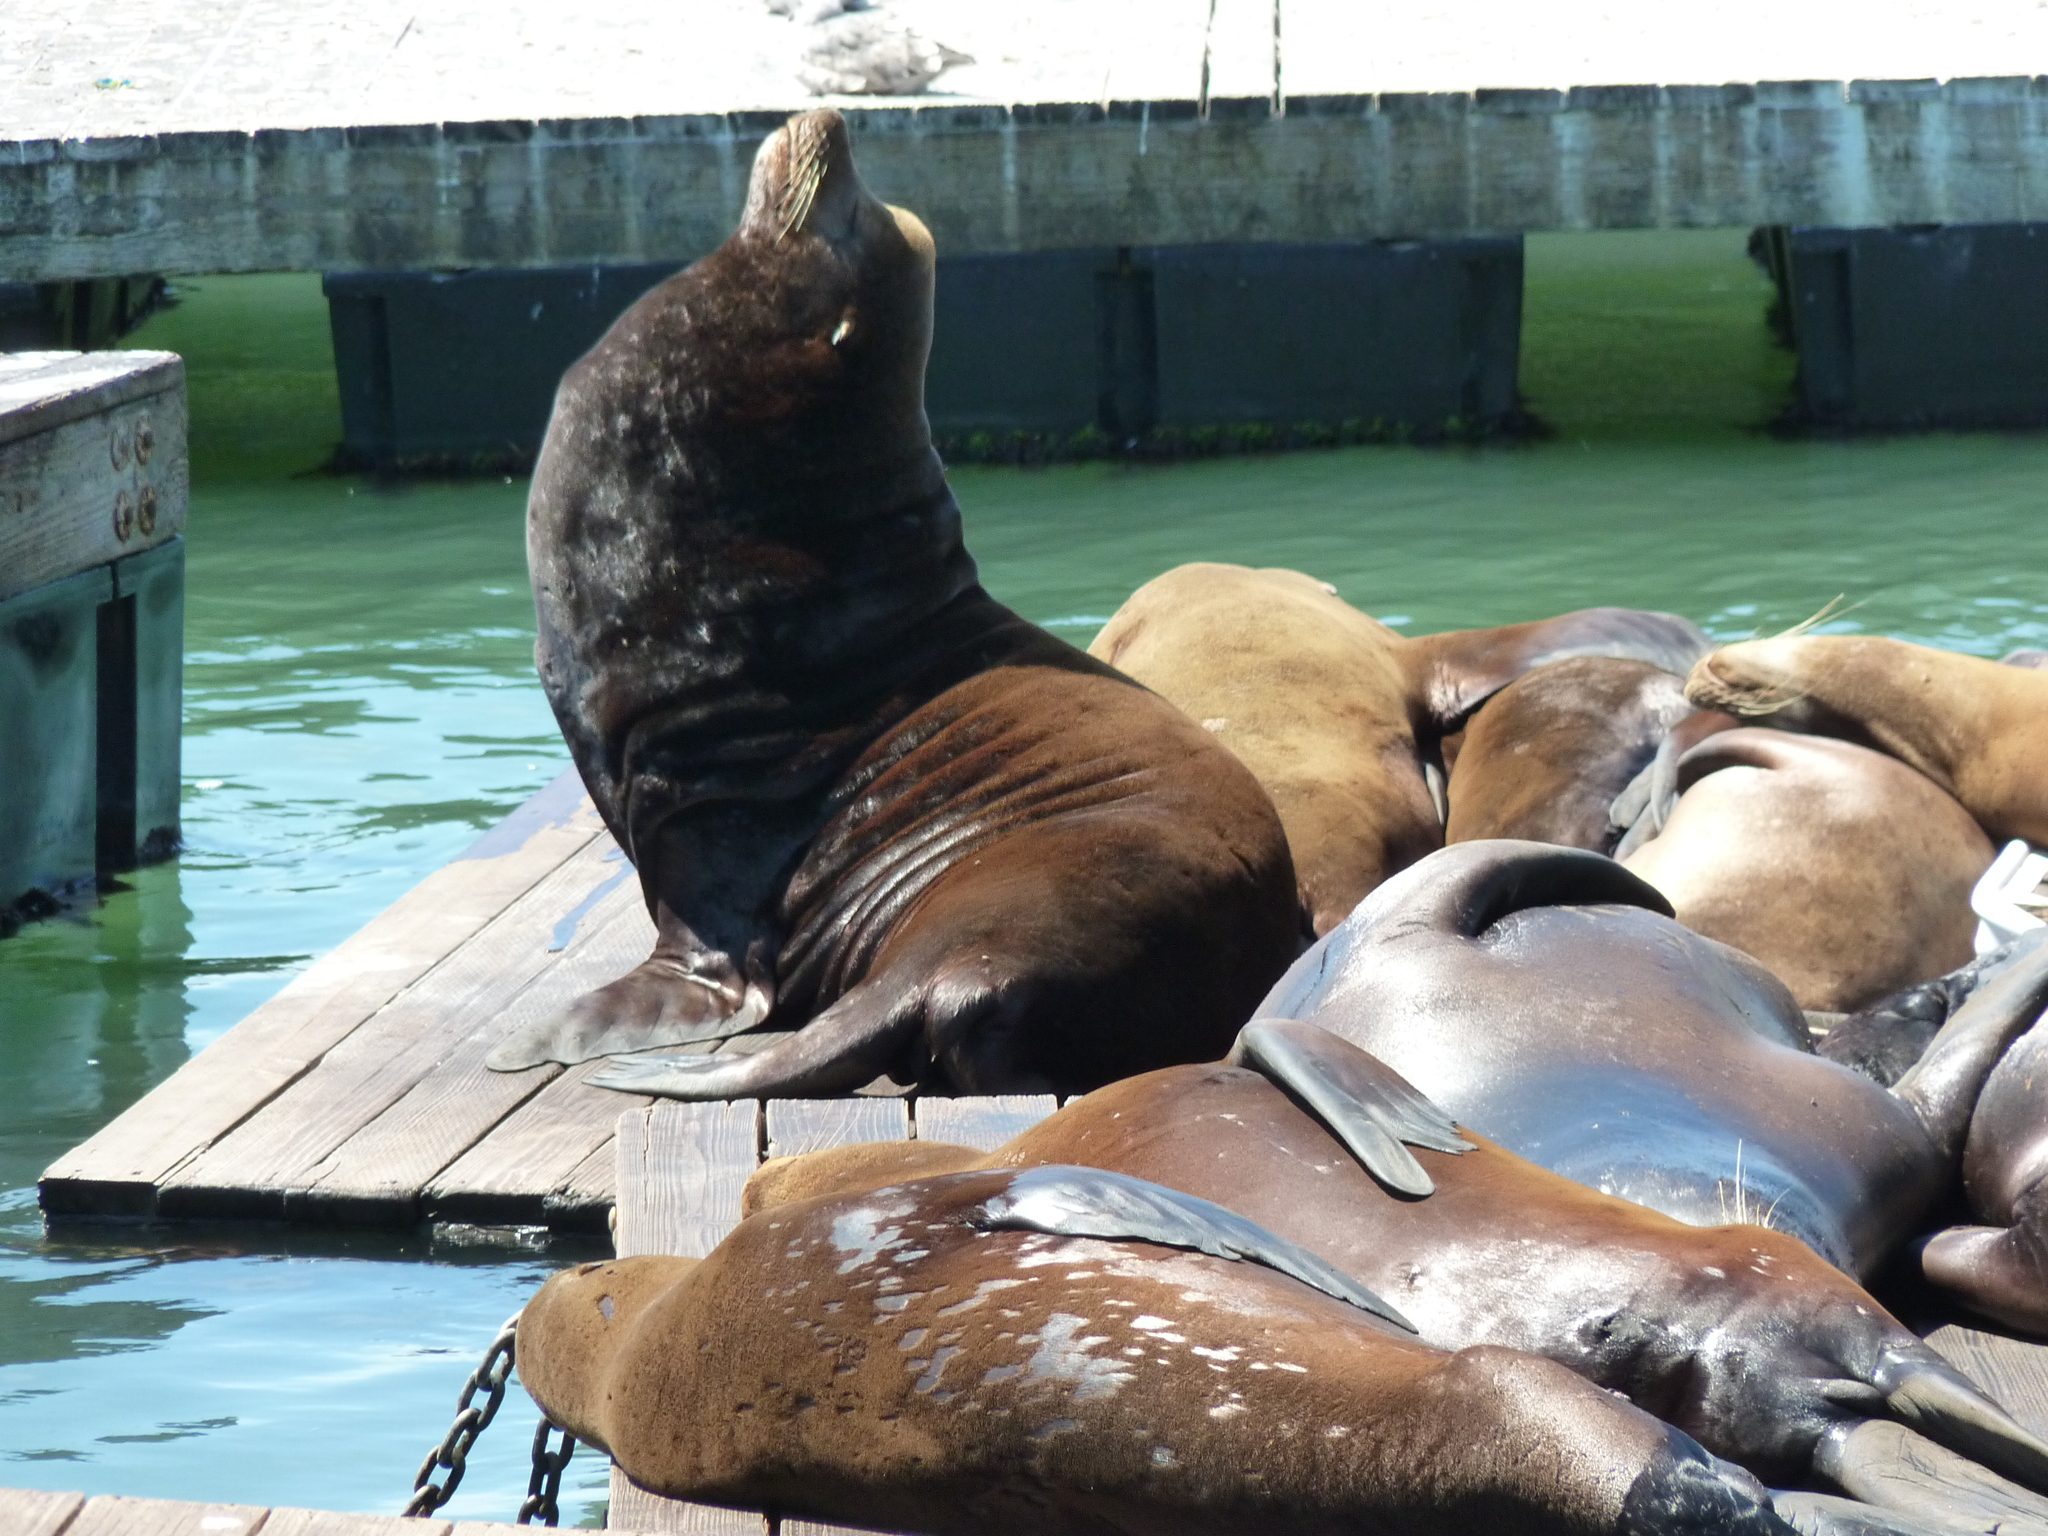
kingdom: Animalia
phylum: Chordata
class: Mammalia
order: Carnivora
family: Otariidae
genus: Zalophus
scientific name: Zalophus californianus
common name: California sea lion
